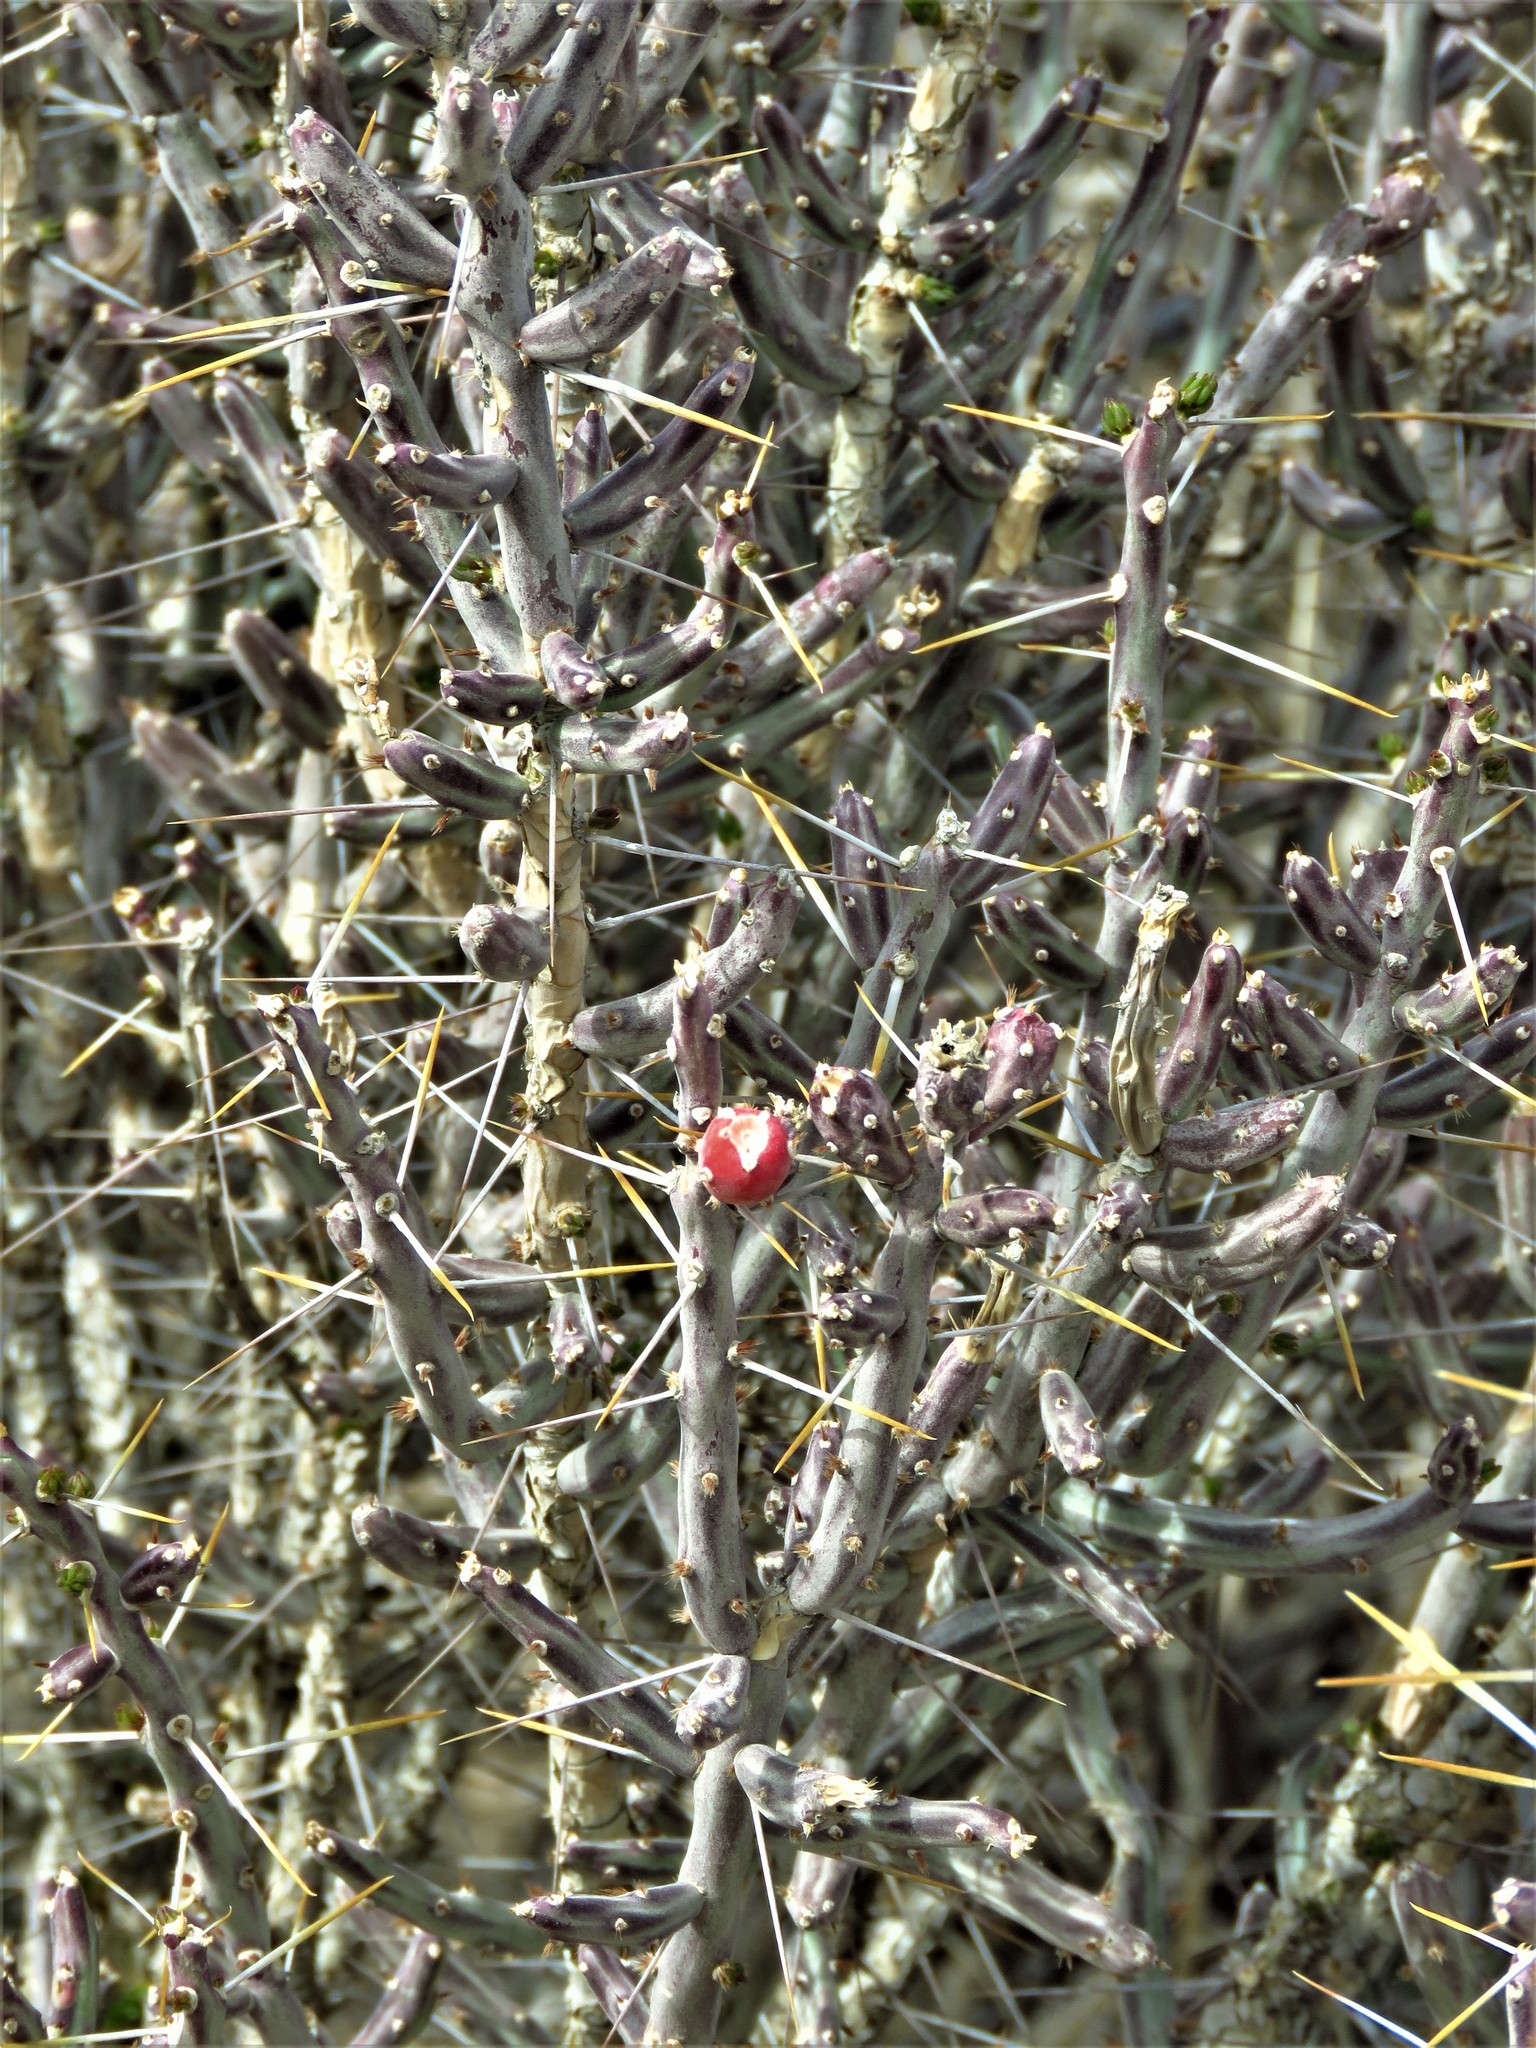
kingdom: Plantae
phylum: Tracheophyta
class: Magnoliopsida
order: Caryophyllales
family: Cactaceae
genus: Cylindropuntia
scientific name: Cylindropuntia leptocaulis
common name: Christmas cactus
